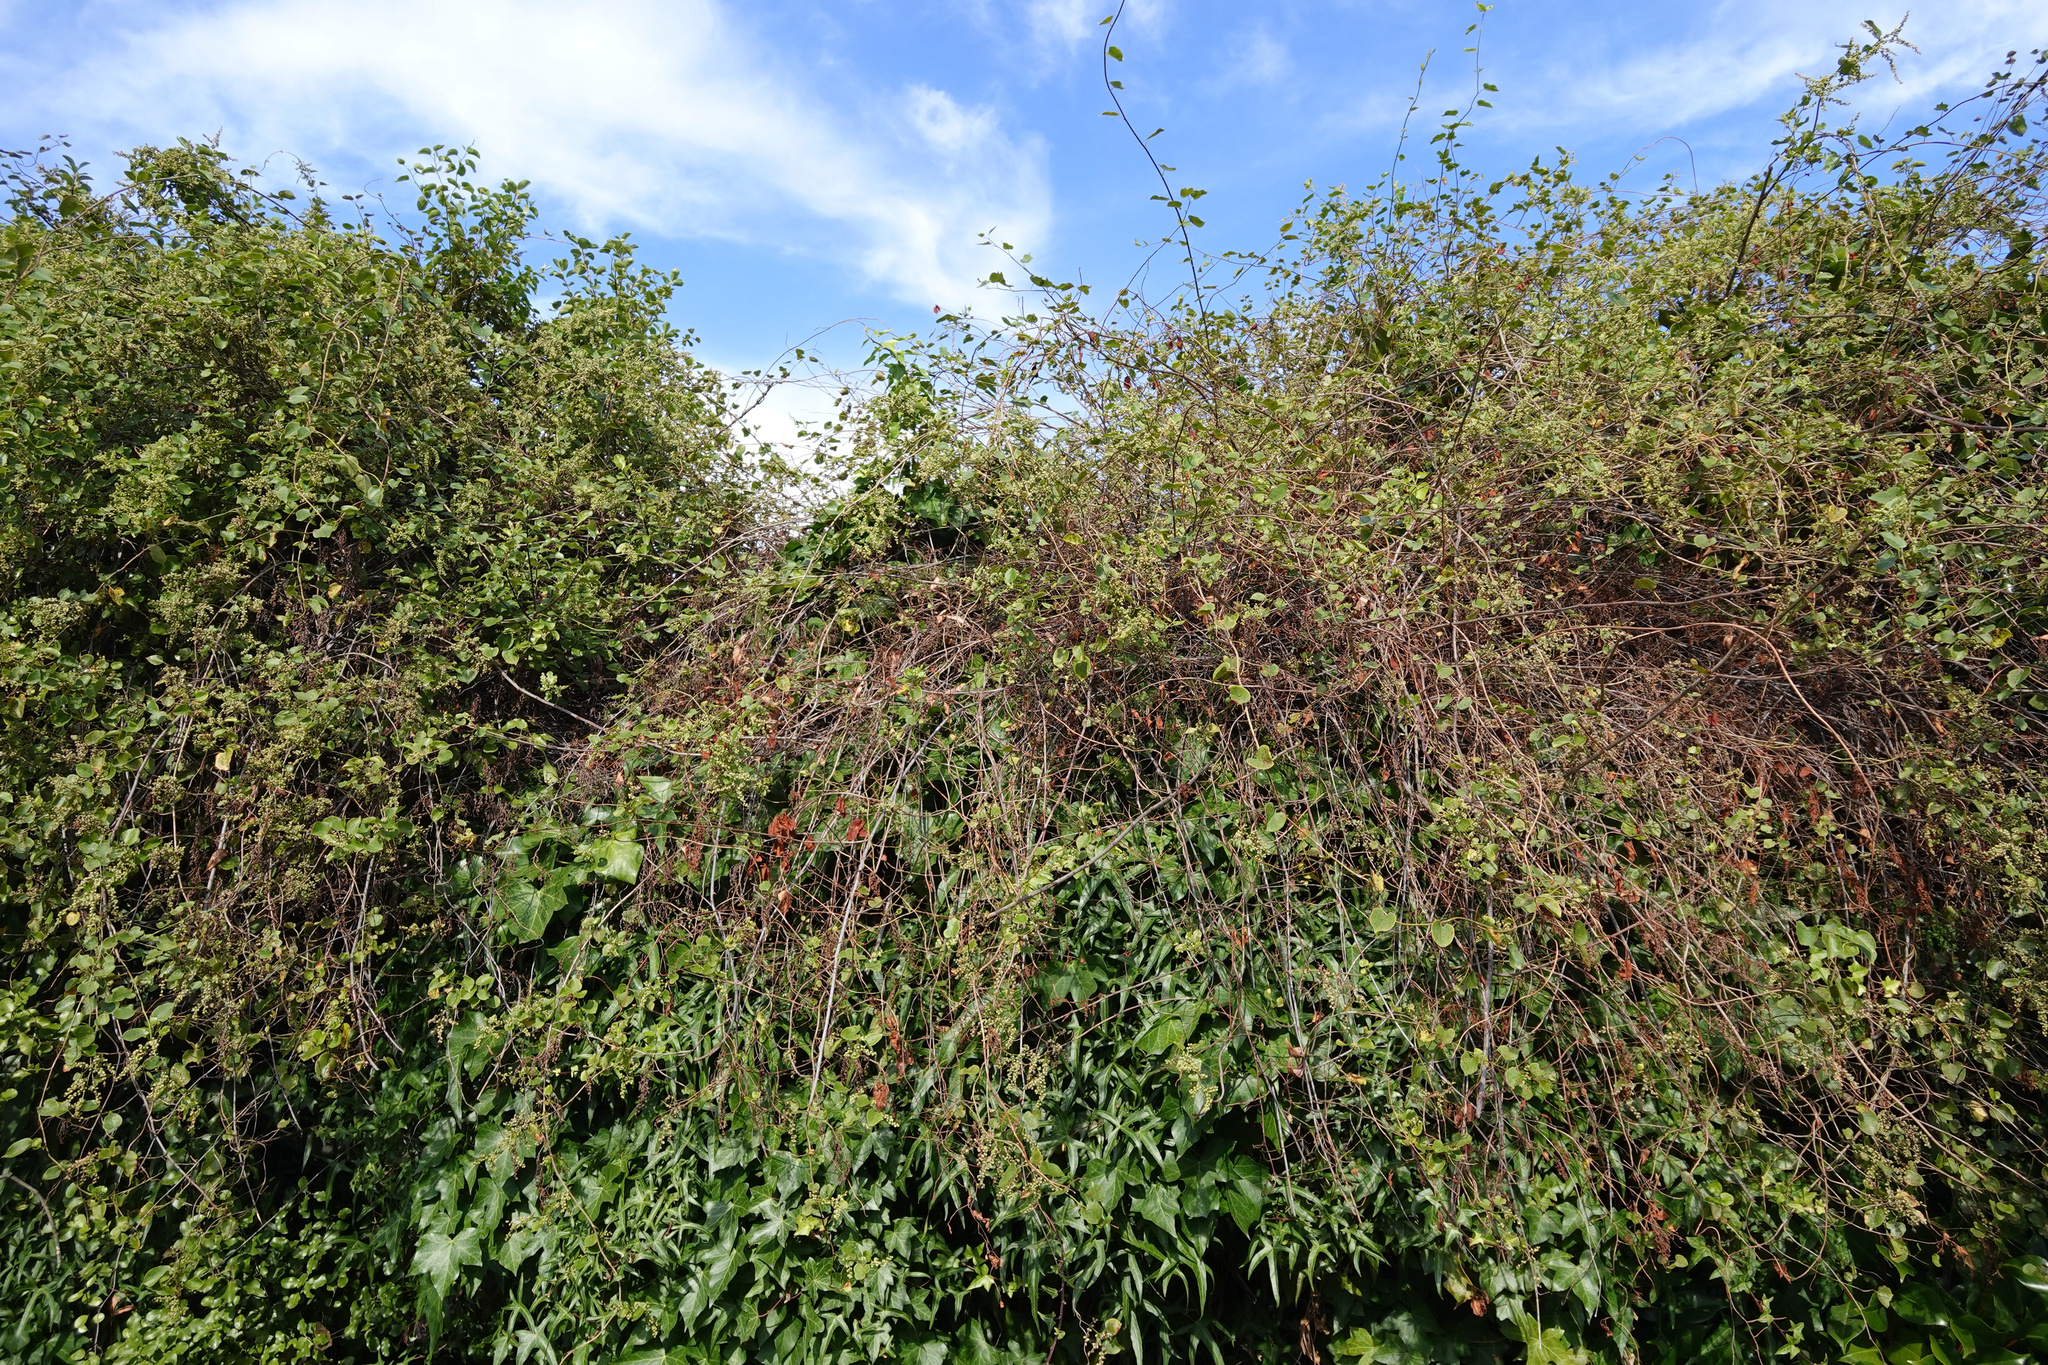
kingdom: Plantae
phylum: Tracheophyta
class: Magnoliopsida
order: Caryophyllales
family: Polygonaceae
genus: Muehlenbeckia
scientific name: Muehlenbeckia australis
